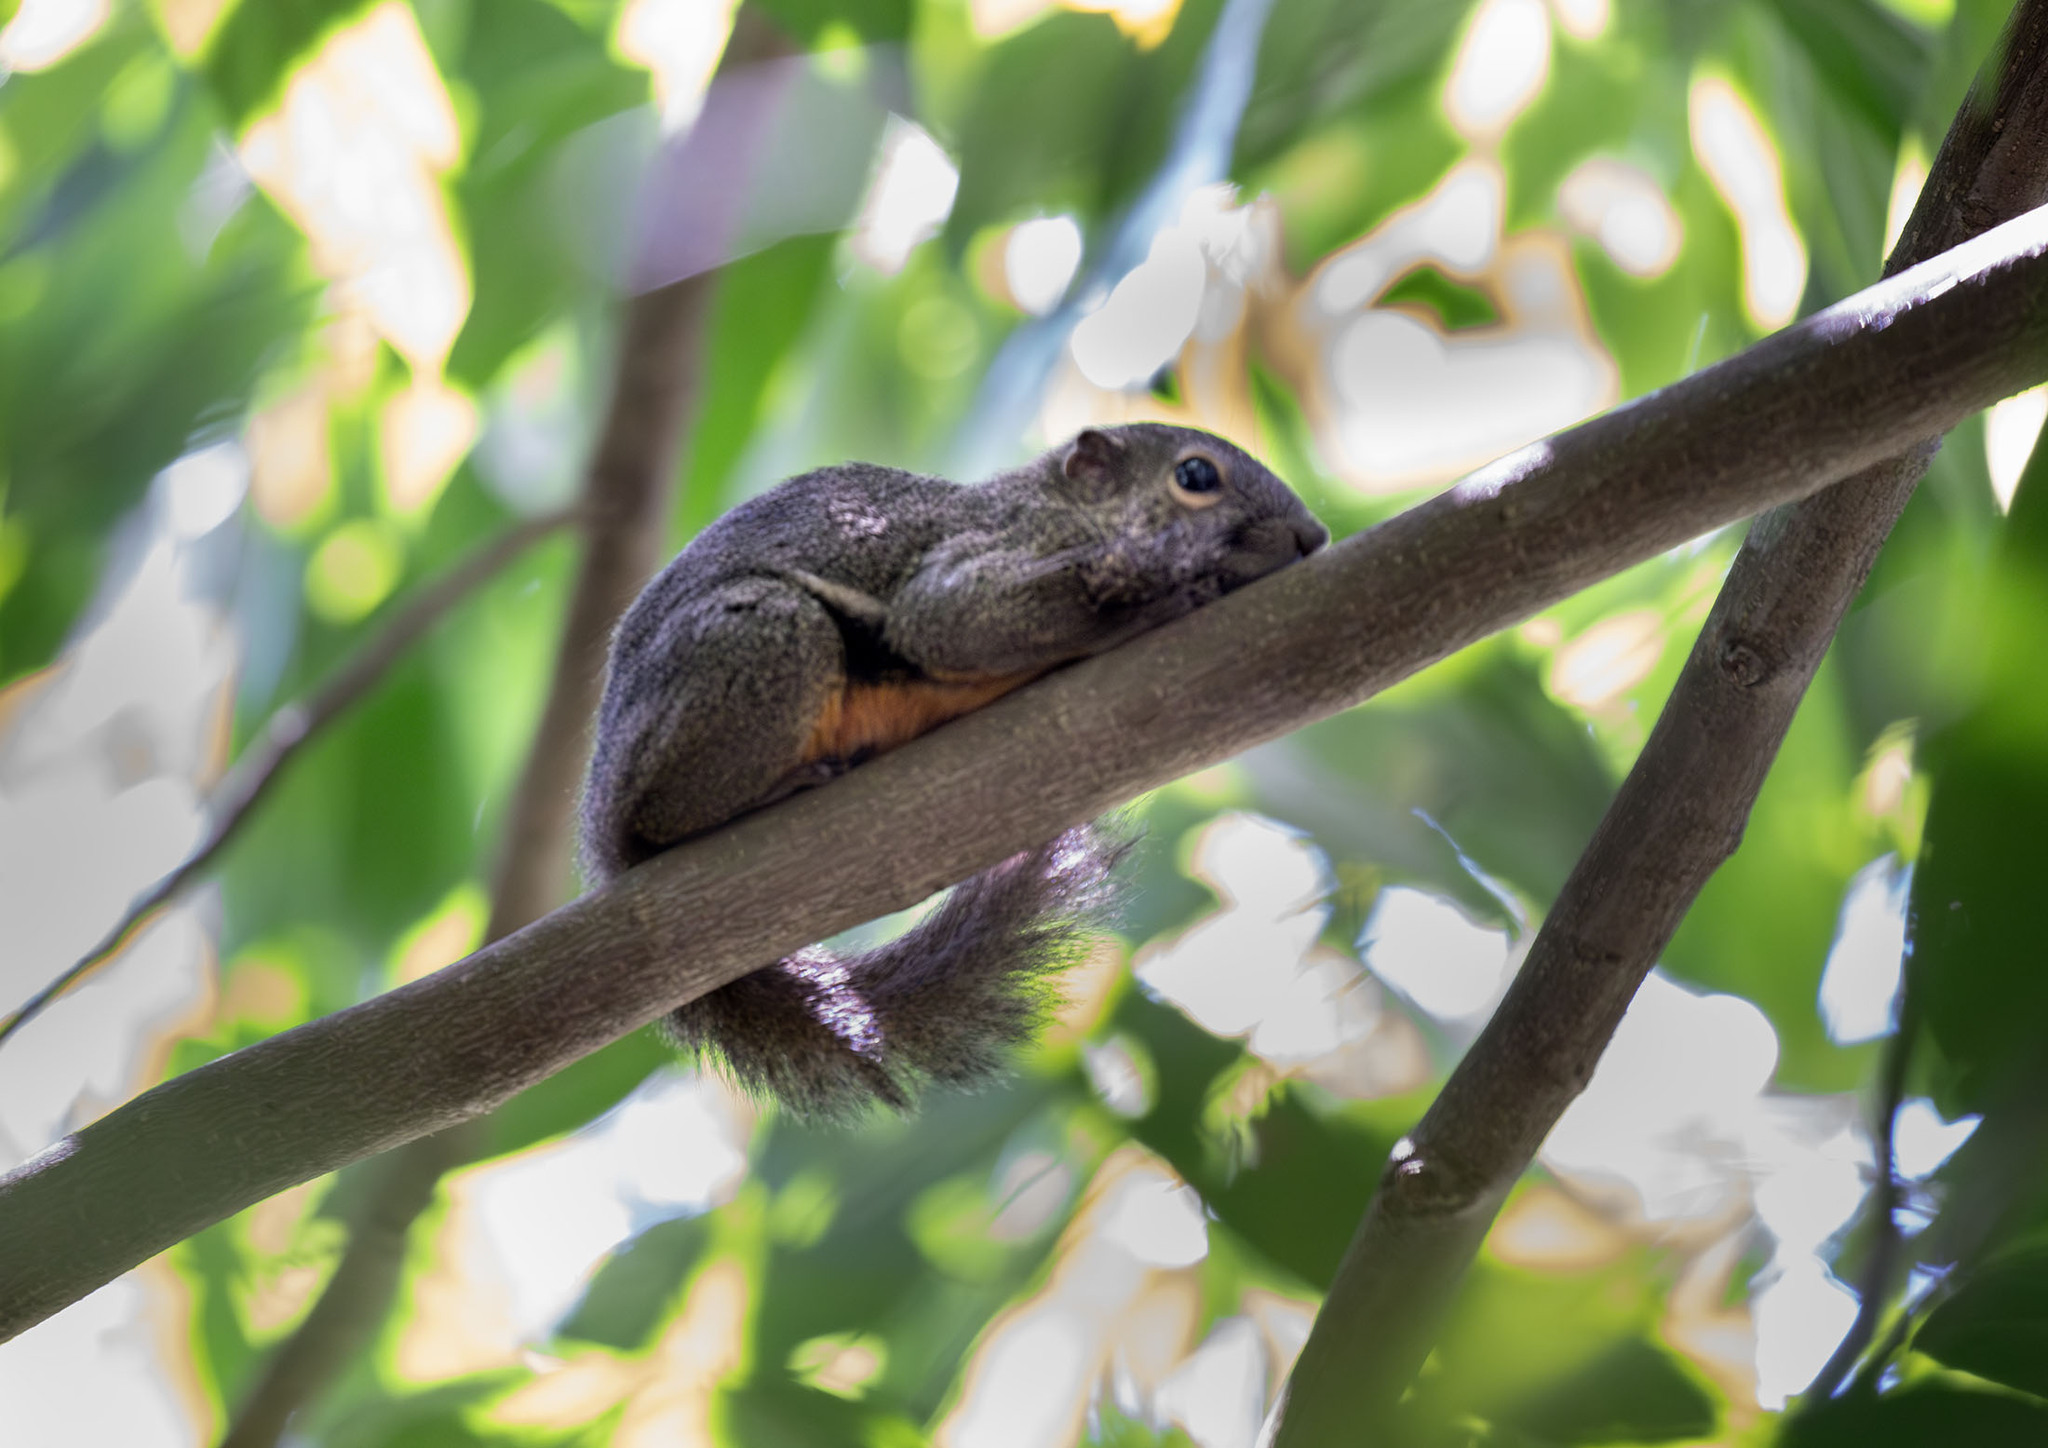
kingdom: Animalia
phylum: Chordata
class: Mammalia
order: Rodentia
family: Sciuridae
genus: Callosciurus
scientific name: Callosciurus notatus
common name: Plantain squirrel
